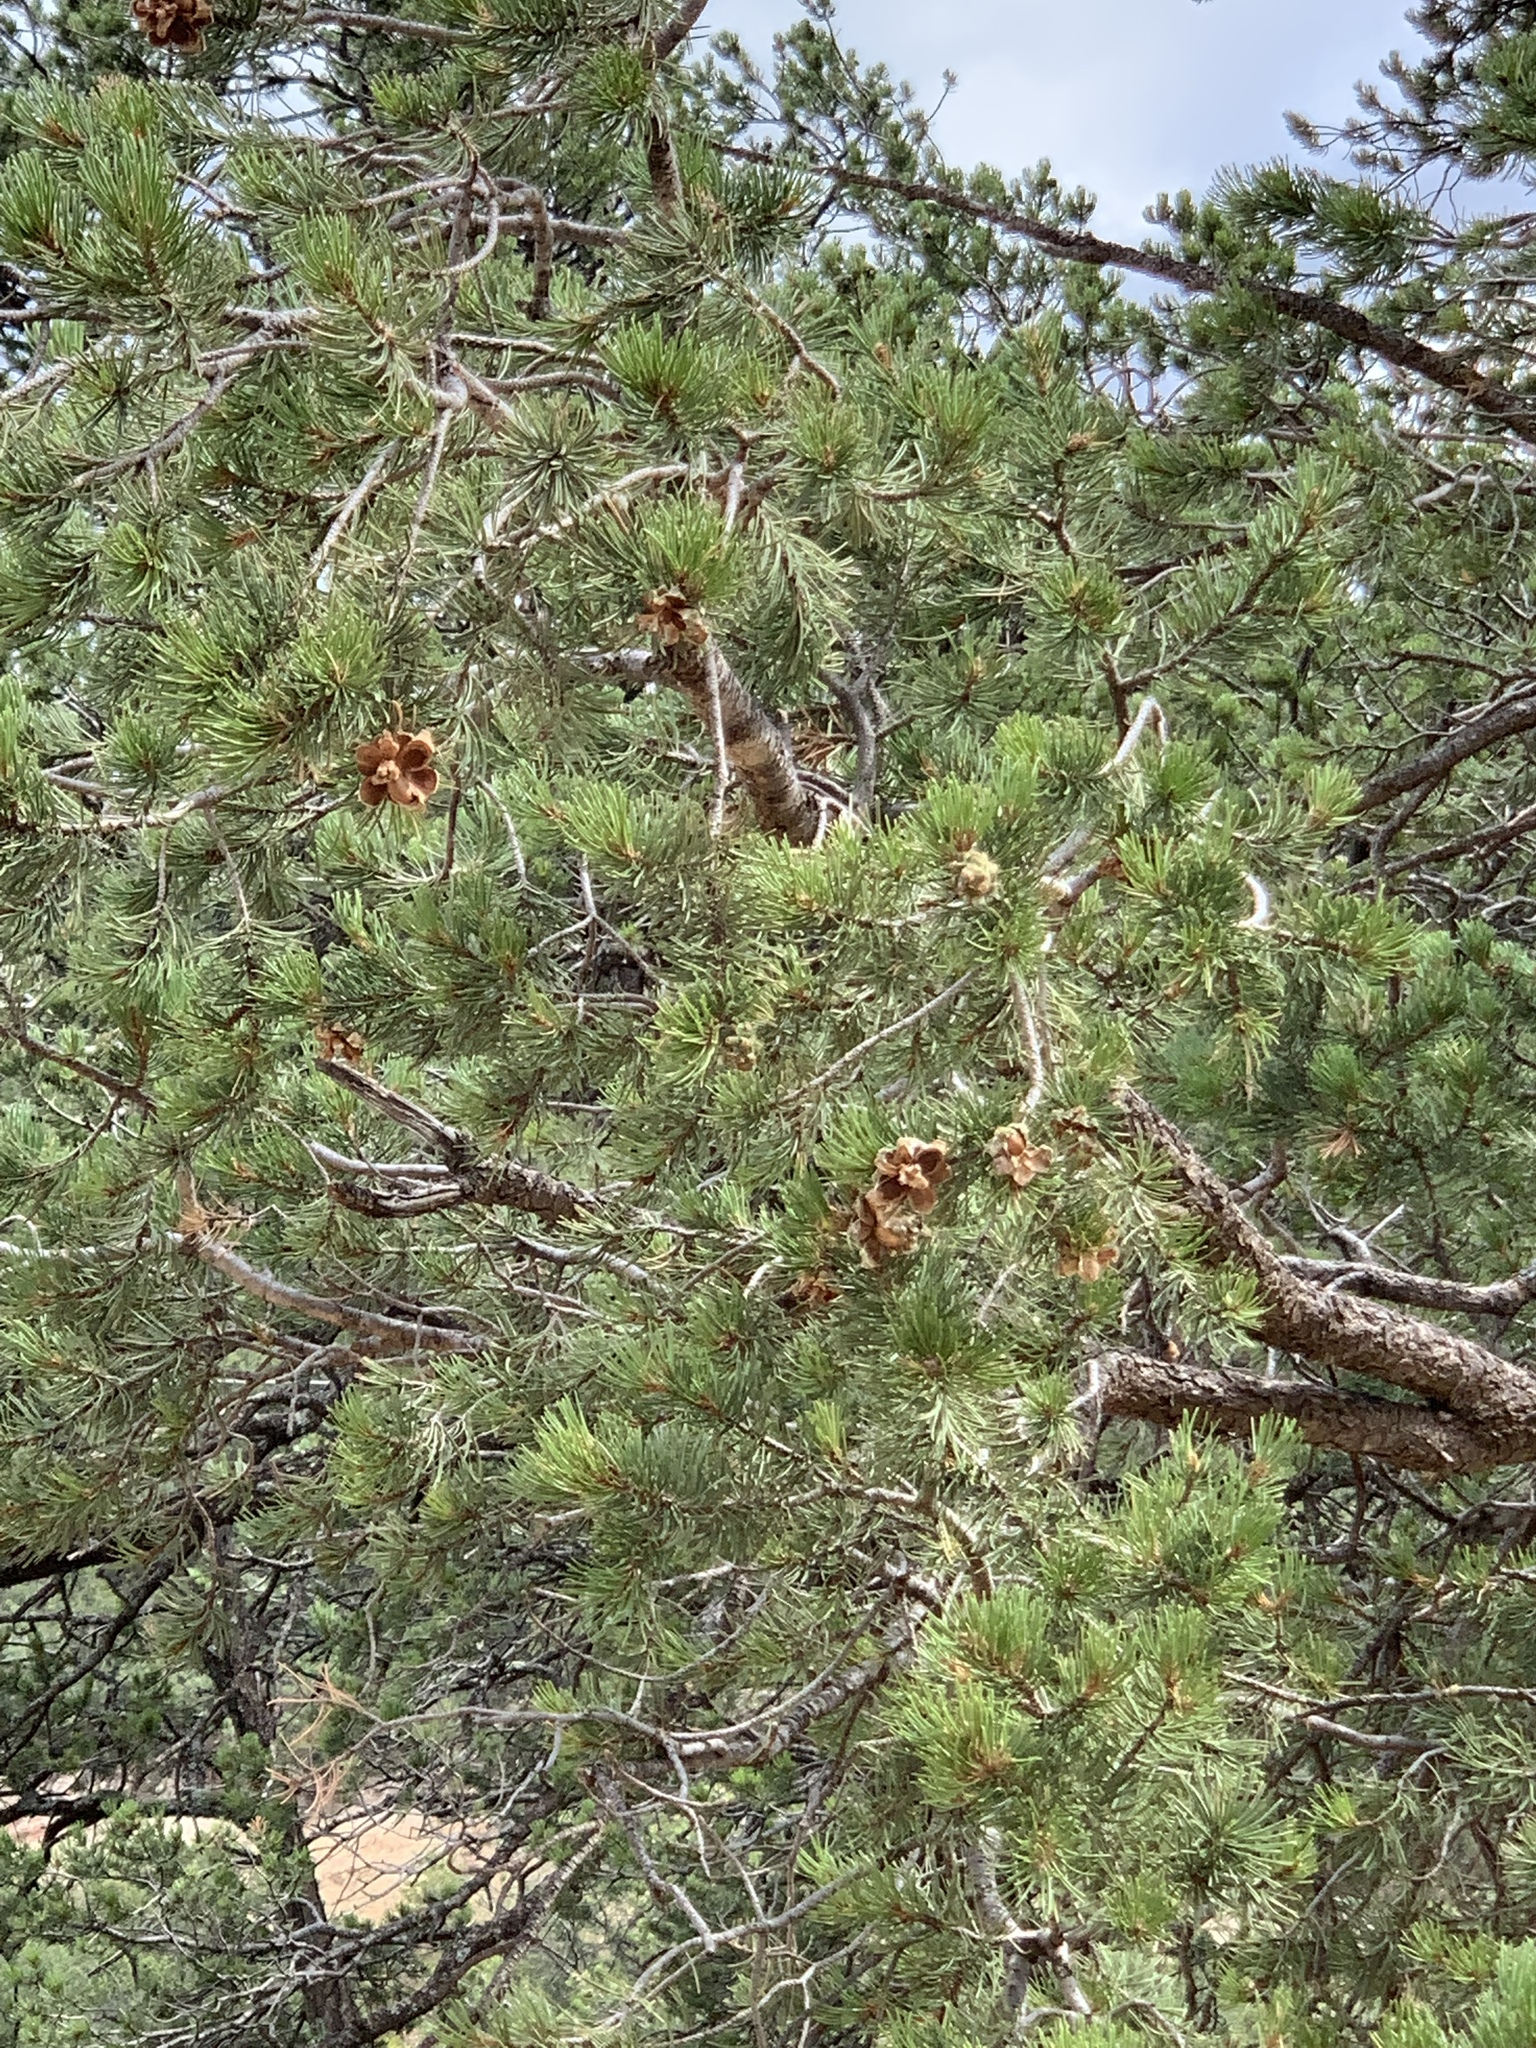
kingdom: Plantae
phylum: Tracheophyta
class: Pinopsida
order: Pinales
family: Pinaceae
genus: Pinus
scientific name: Pinus edulis
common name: Colorado pinyon
